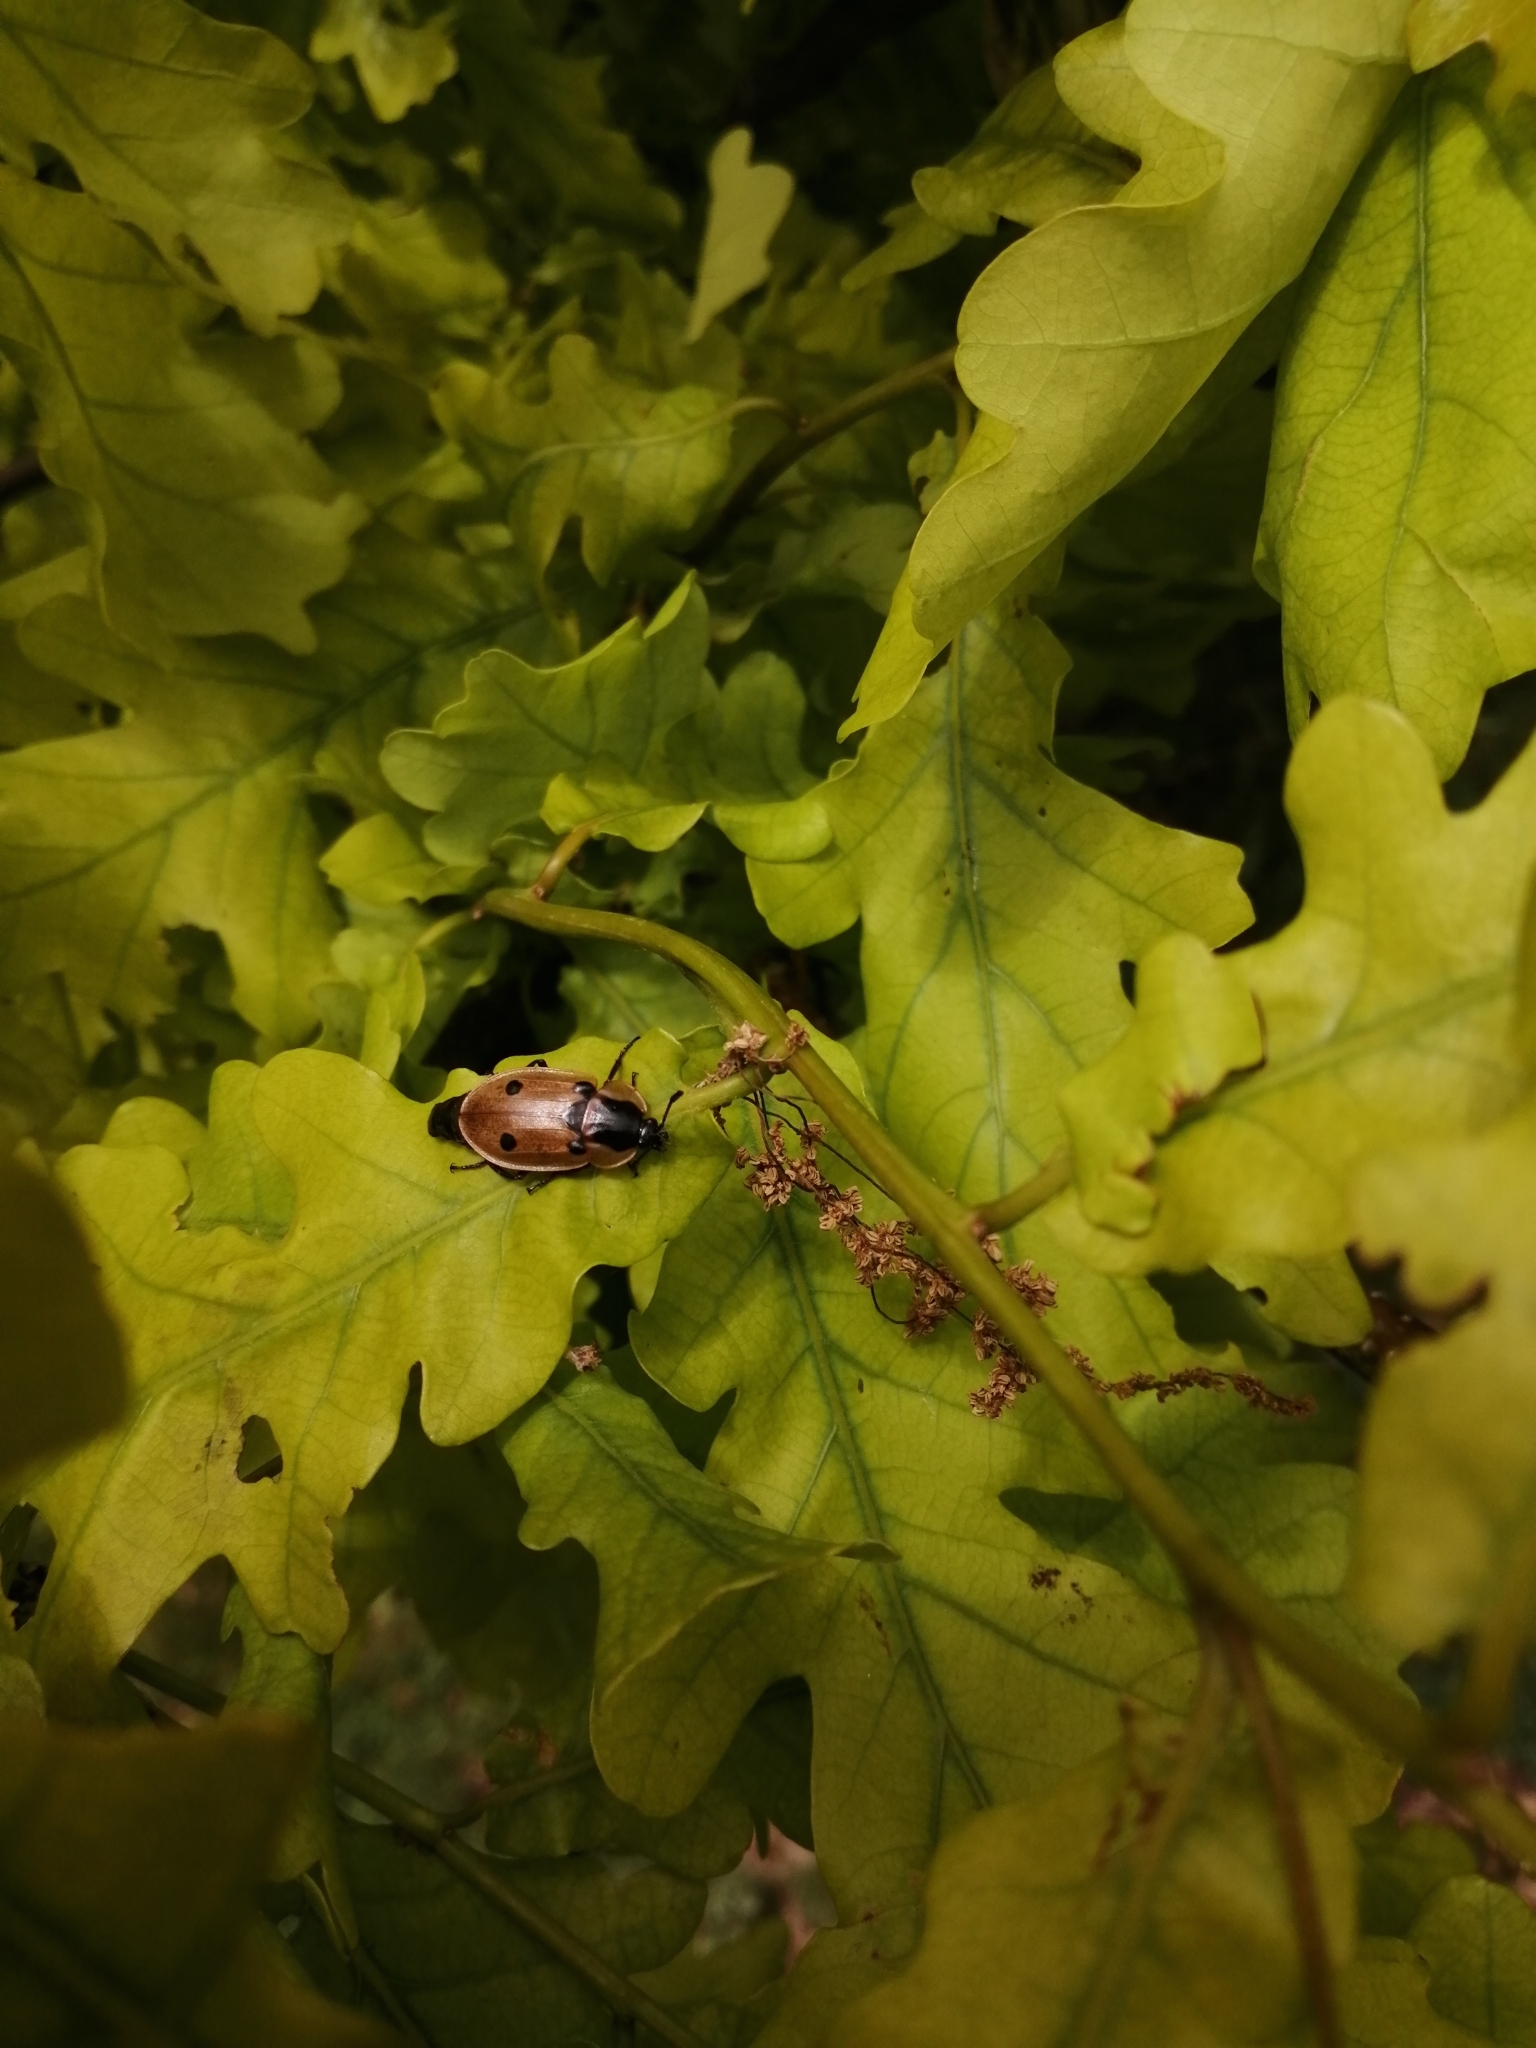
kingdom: Animalia
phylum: Arthropoda
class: Insecta
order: Coleoptera
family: Staphylinidae
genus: Dendroxena
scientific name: Dendroxena quadrimaculata
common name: Carrion beetle
